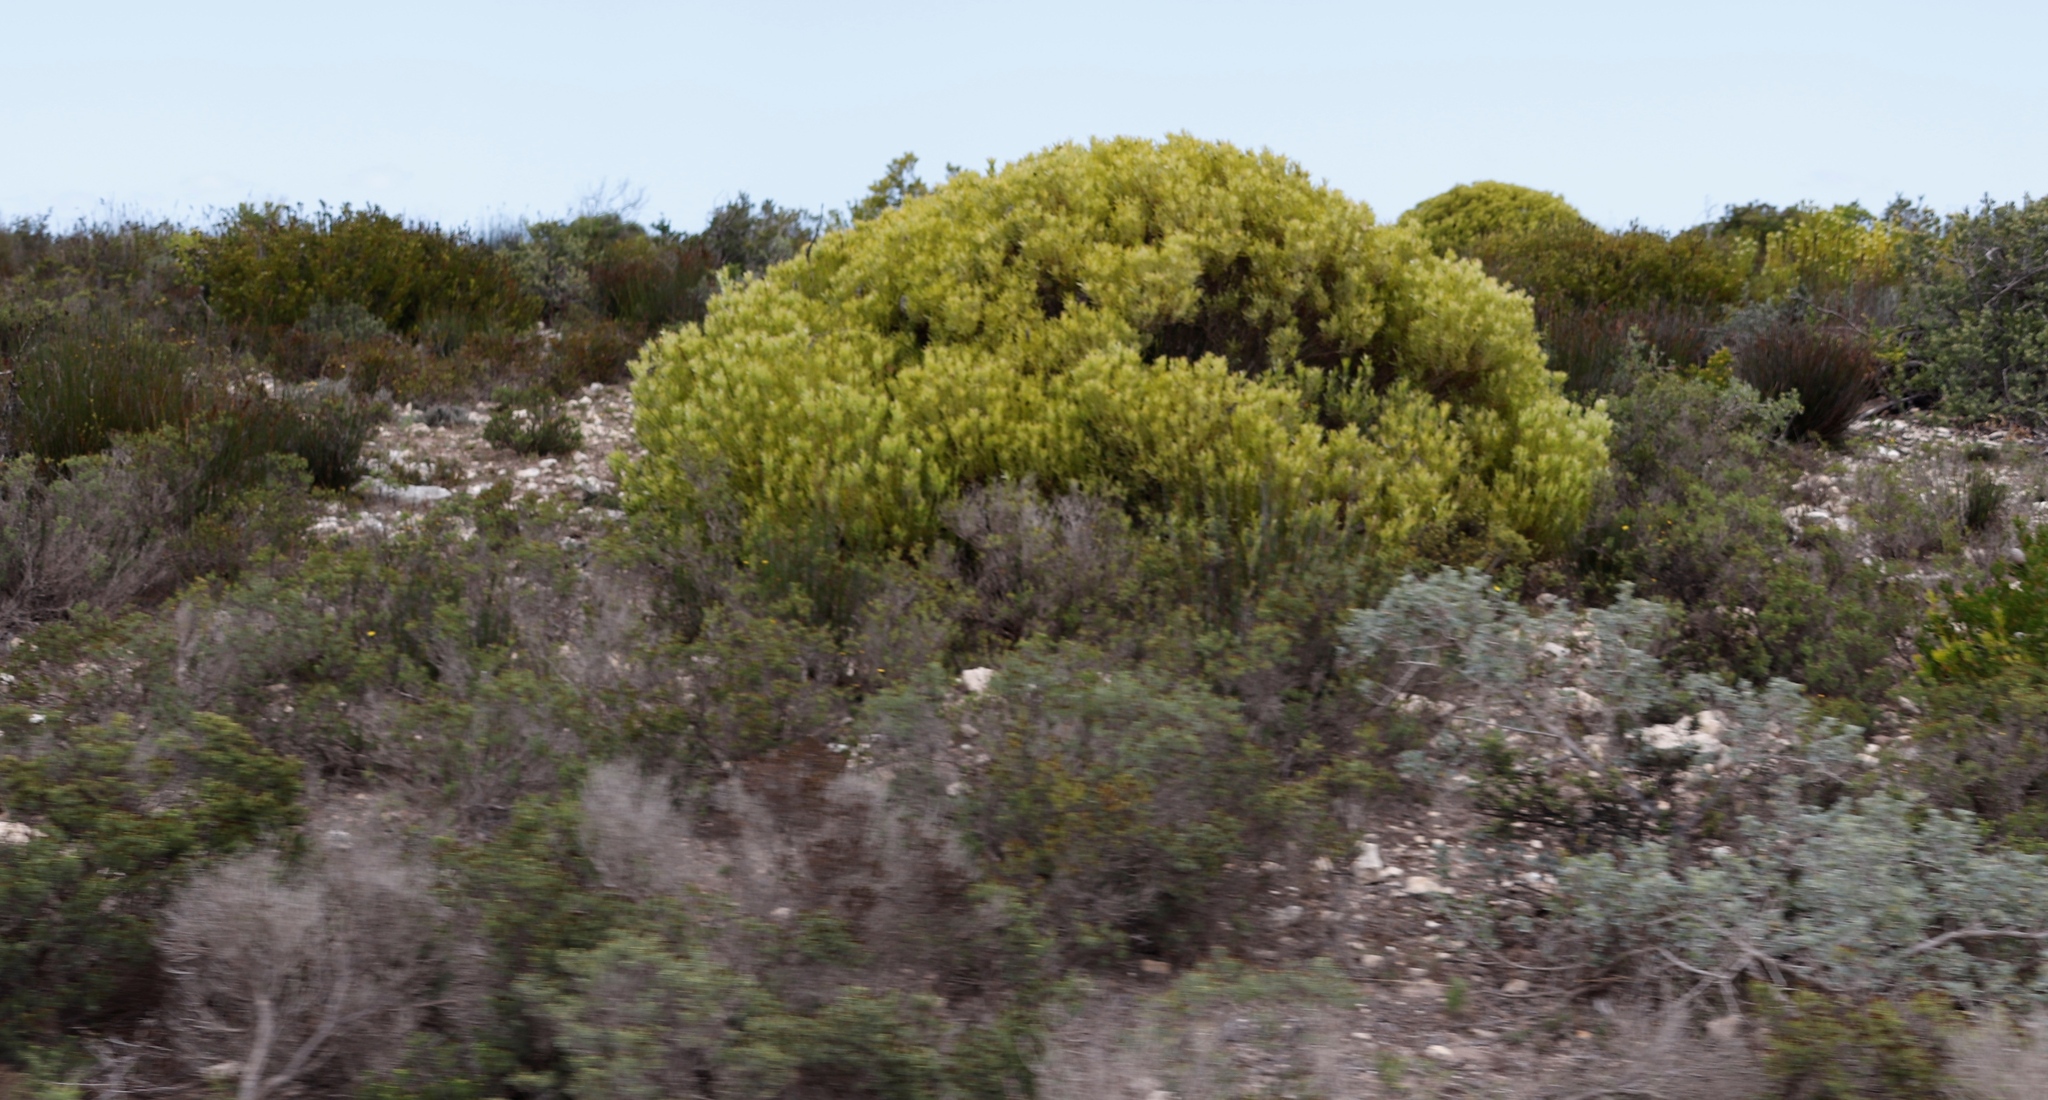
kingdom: Plantae
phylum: Tracheophyta
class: Magnoliopsida
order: Proteales
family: Proteaceae
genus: Leucadendron
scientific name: Leucadendron meridianum
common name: Limestone conebush
